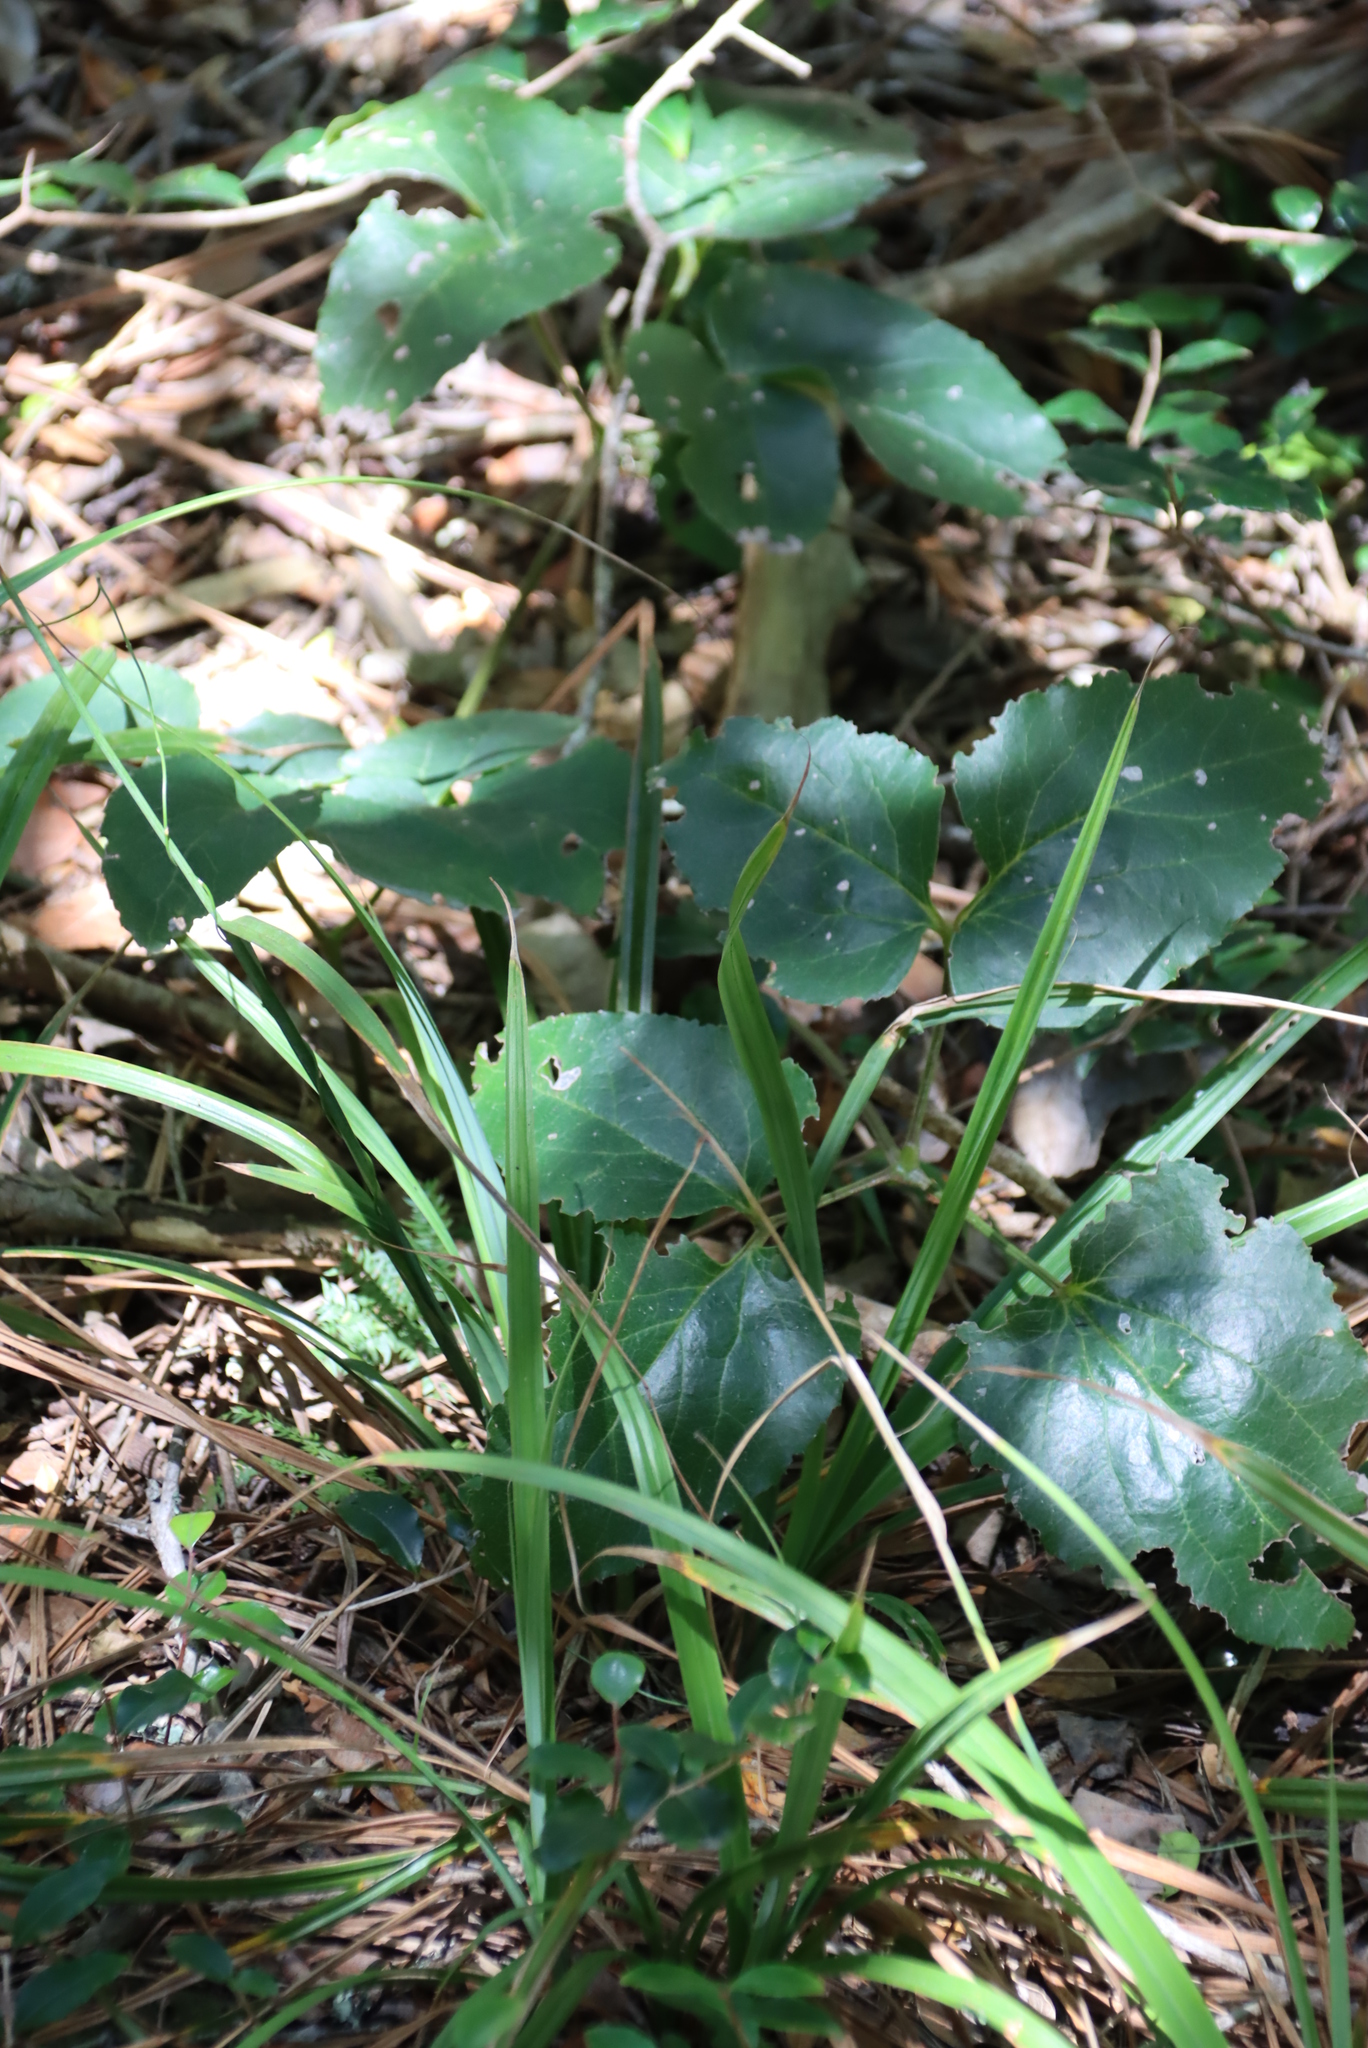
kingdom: Plantae
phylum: Tracheophyta
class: Magnoliopsida
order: Ranunculales
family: Ranunculaceae
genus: Knowltonia
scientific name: Knowltonia vesicatoria
